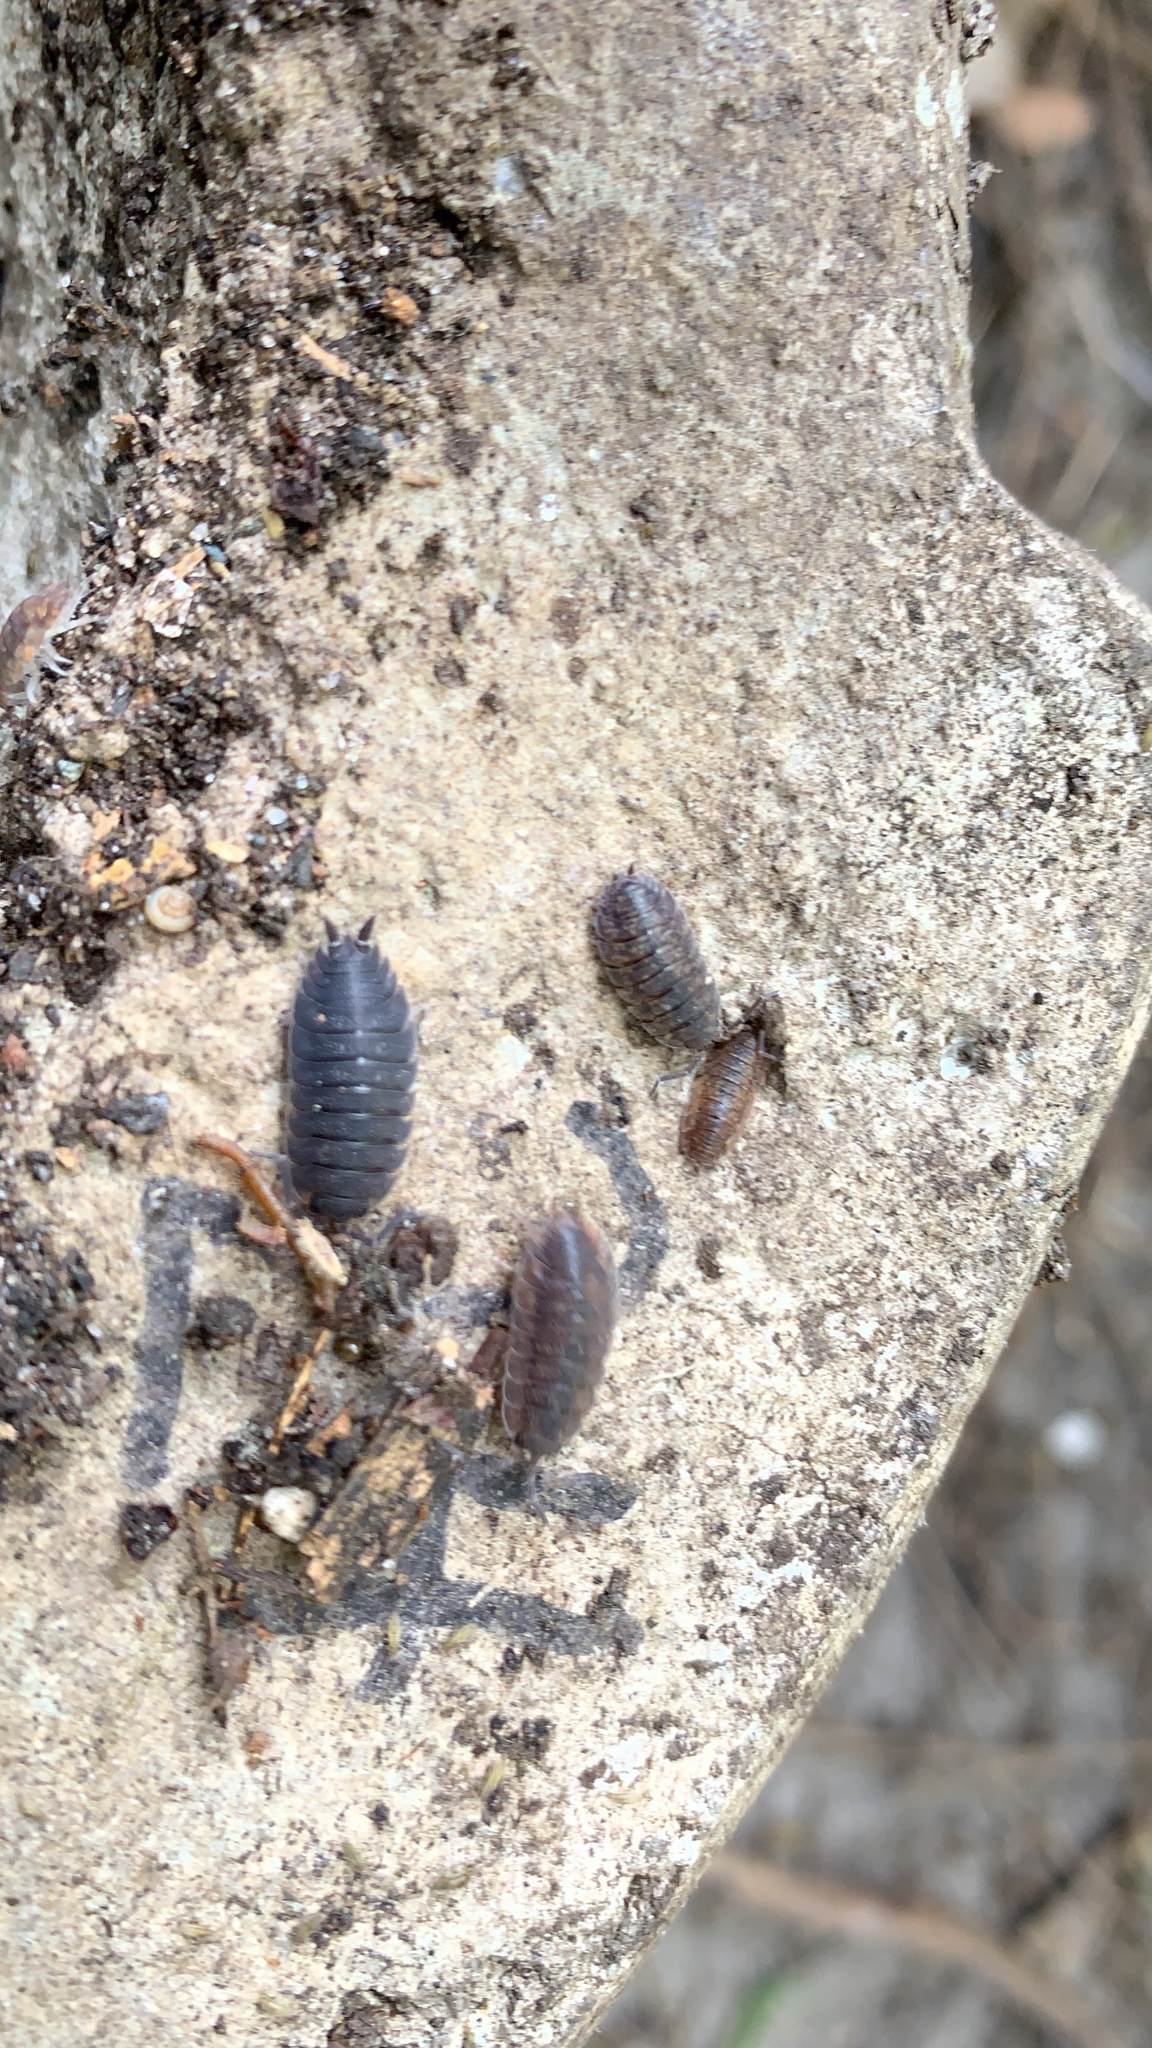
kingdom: Animalia
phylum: Arthropoda
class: Malacostraca
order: Isopoda
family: Porcellionidae
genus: Porcellio
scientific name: Porcellio scaber
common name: Common rough woodlouse
